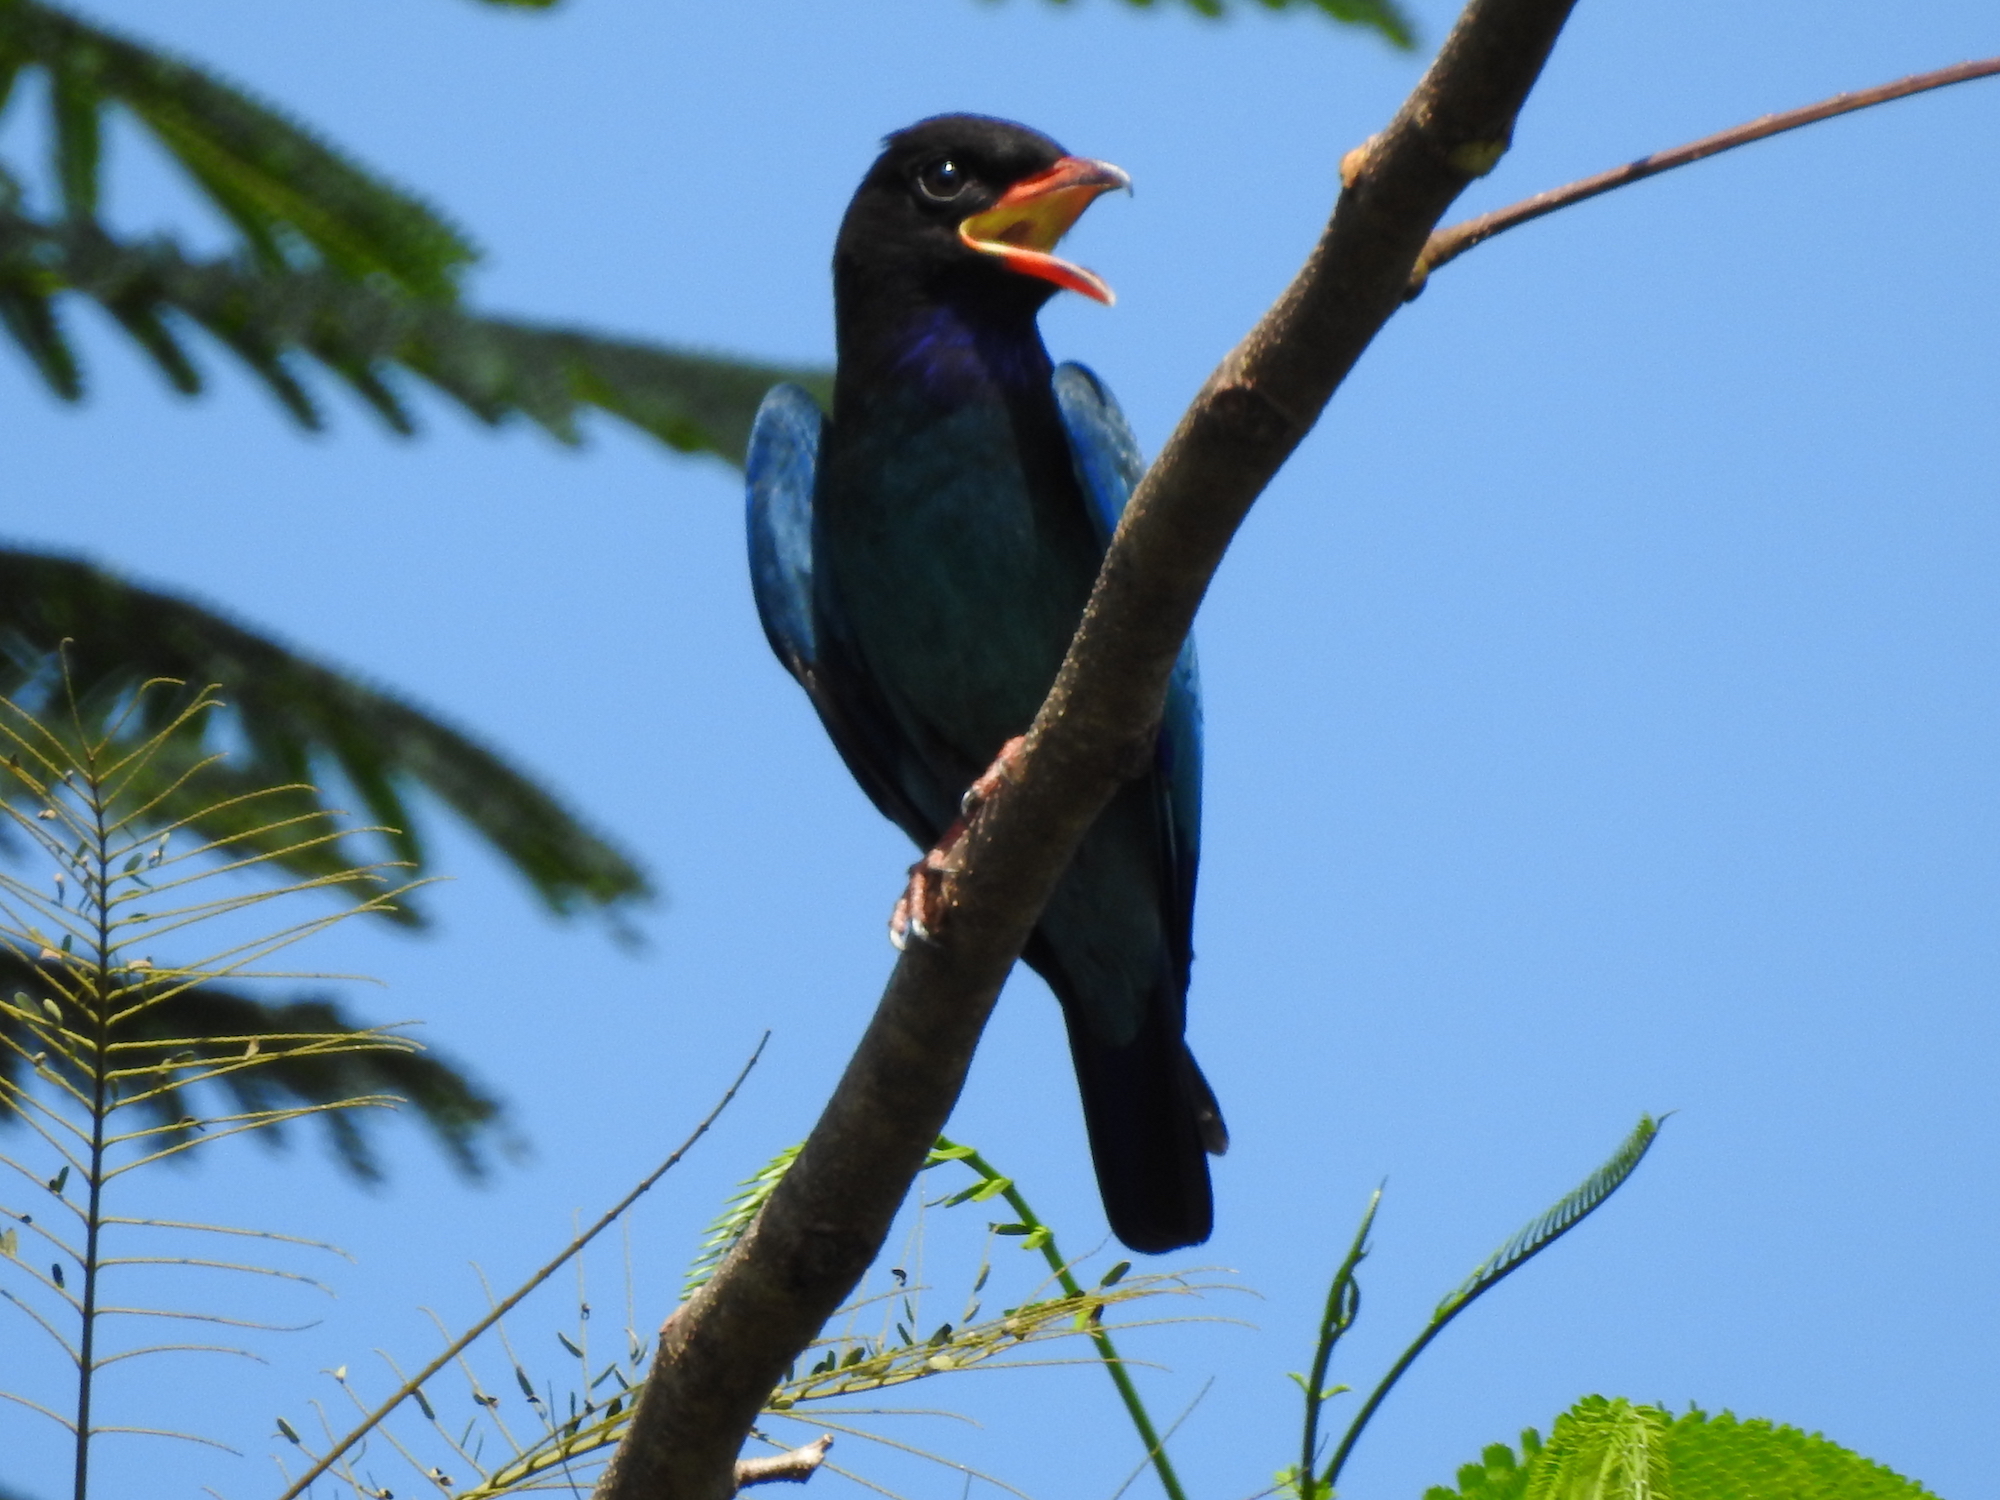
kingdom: Animalia
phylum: Chordata
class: Aves
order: Coraciiformes
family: Coraciidae
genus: Eurystomus
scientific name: Eurystomus orientalis
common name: Oriental dollarbird
